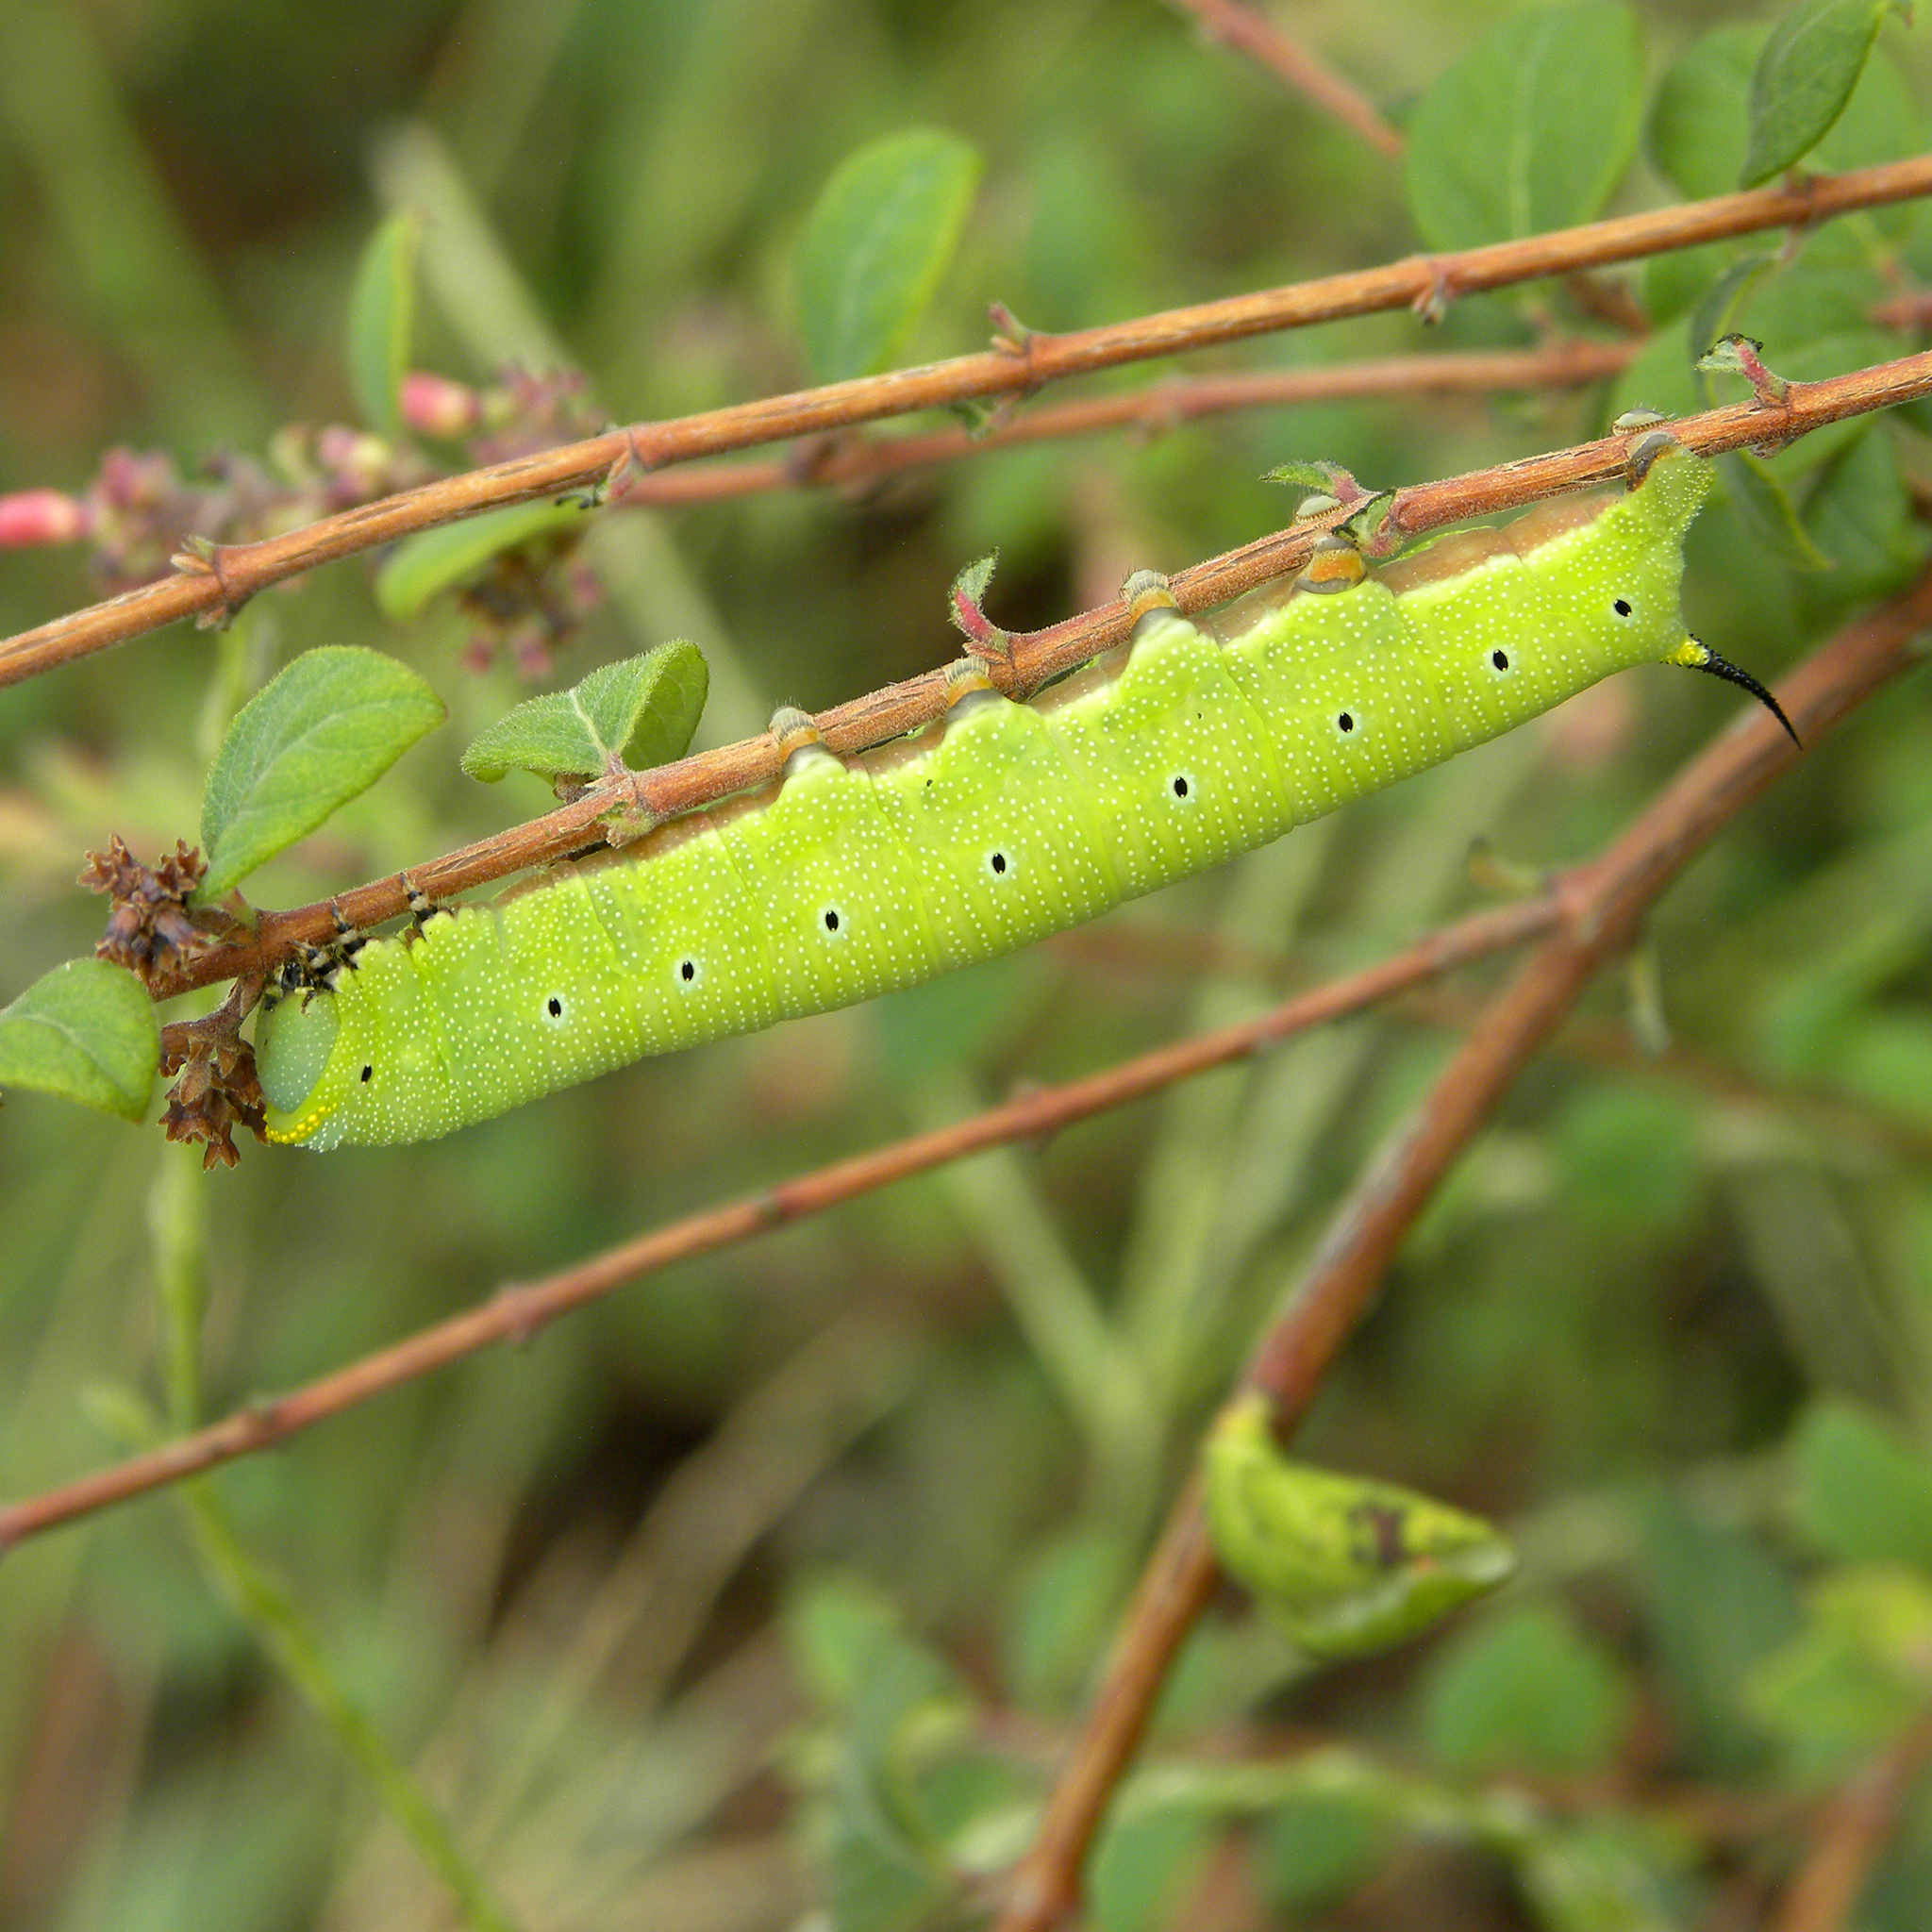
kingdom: Animalia
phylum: Arthropoda
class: Insecta
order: Lepidoptera
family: Sphingidae
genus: Hemaris
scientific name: Hemaris diffinis
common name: Bumblebee moth
